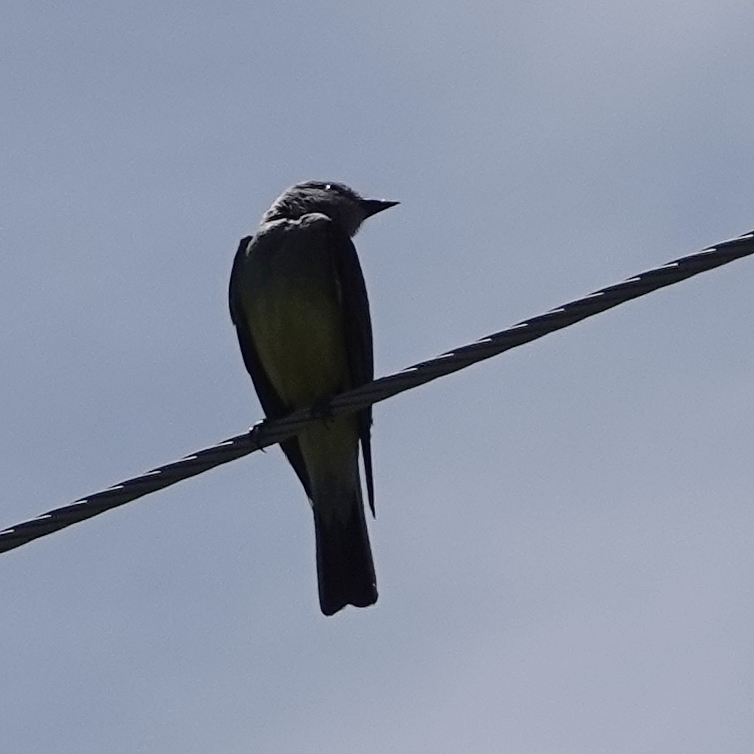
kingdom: Animalia
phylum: Chordata
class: Aves
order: Passeriformes
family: Tyrannidae
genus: Tyrannus
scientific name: Tyrannus verticalis
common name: Western kingbird
